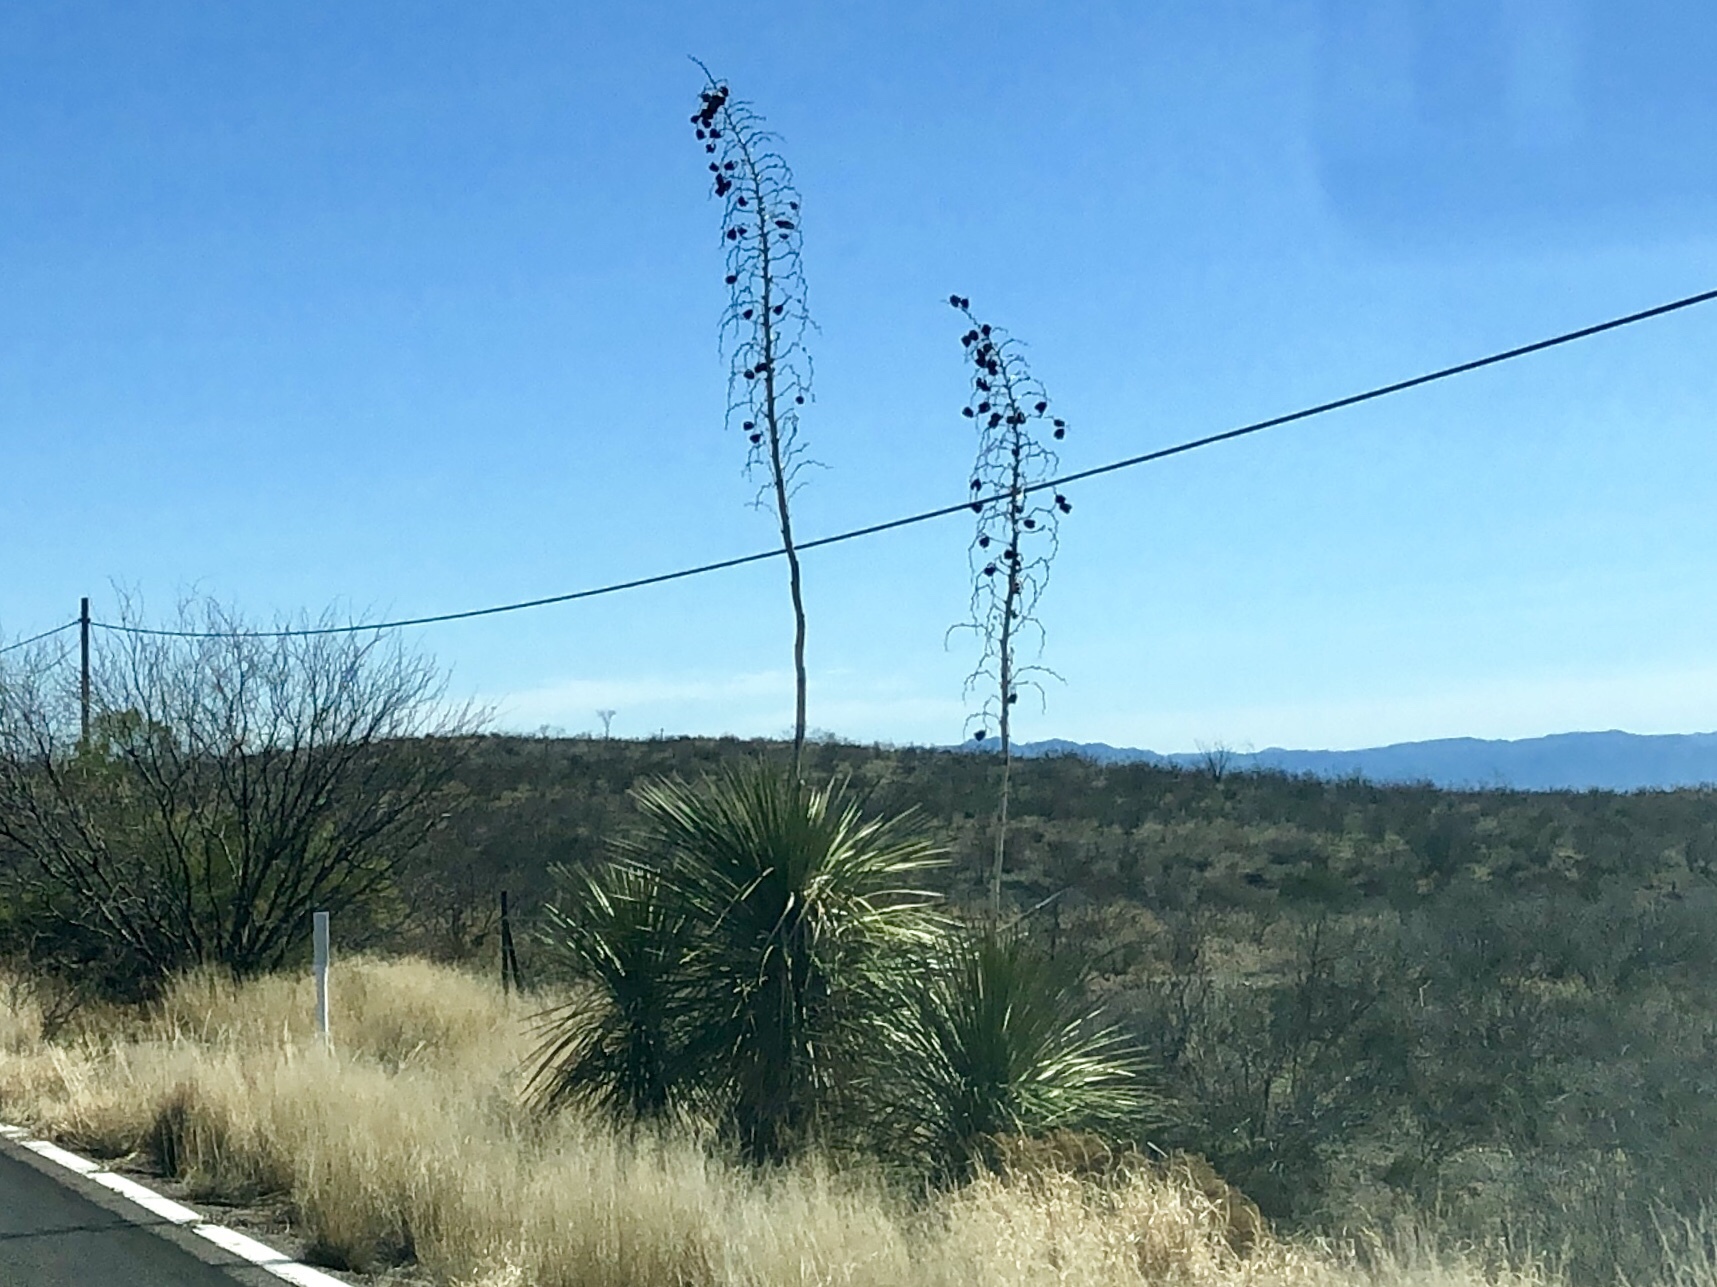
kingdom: Plantae
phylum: Tracheophyta
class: Liliopsida
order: Asparagales
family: Asparagaceae
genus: Yucca
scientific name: Yucca elata
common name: Palmella
